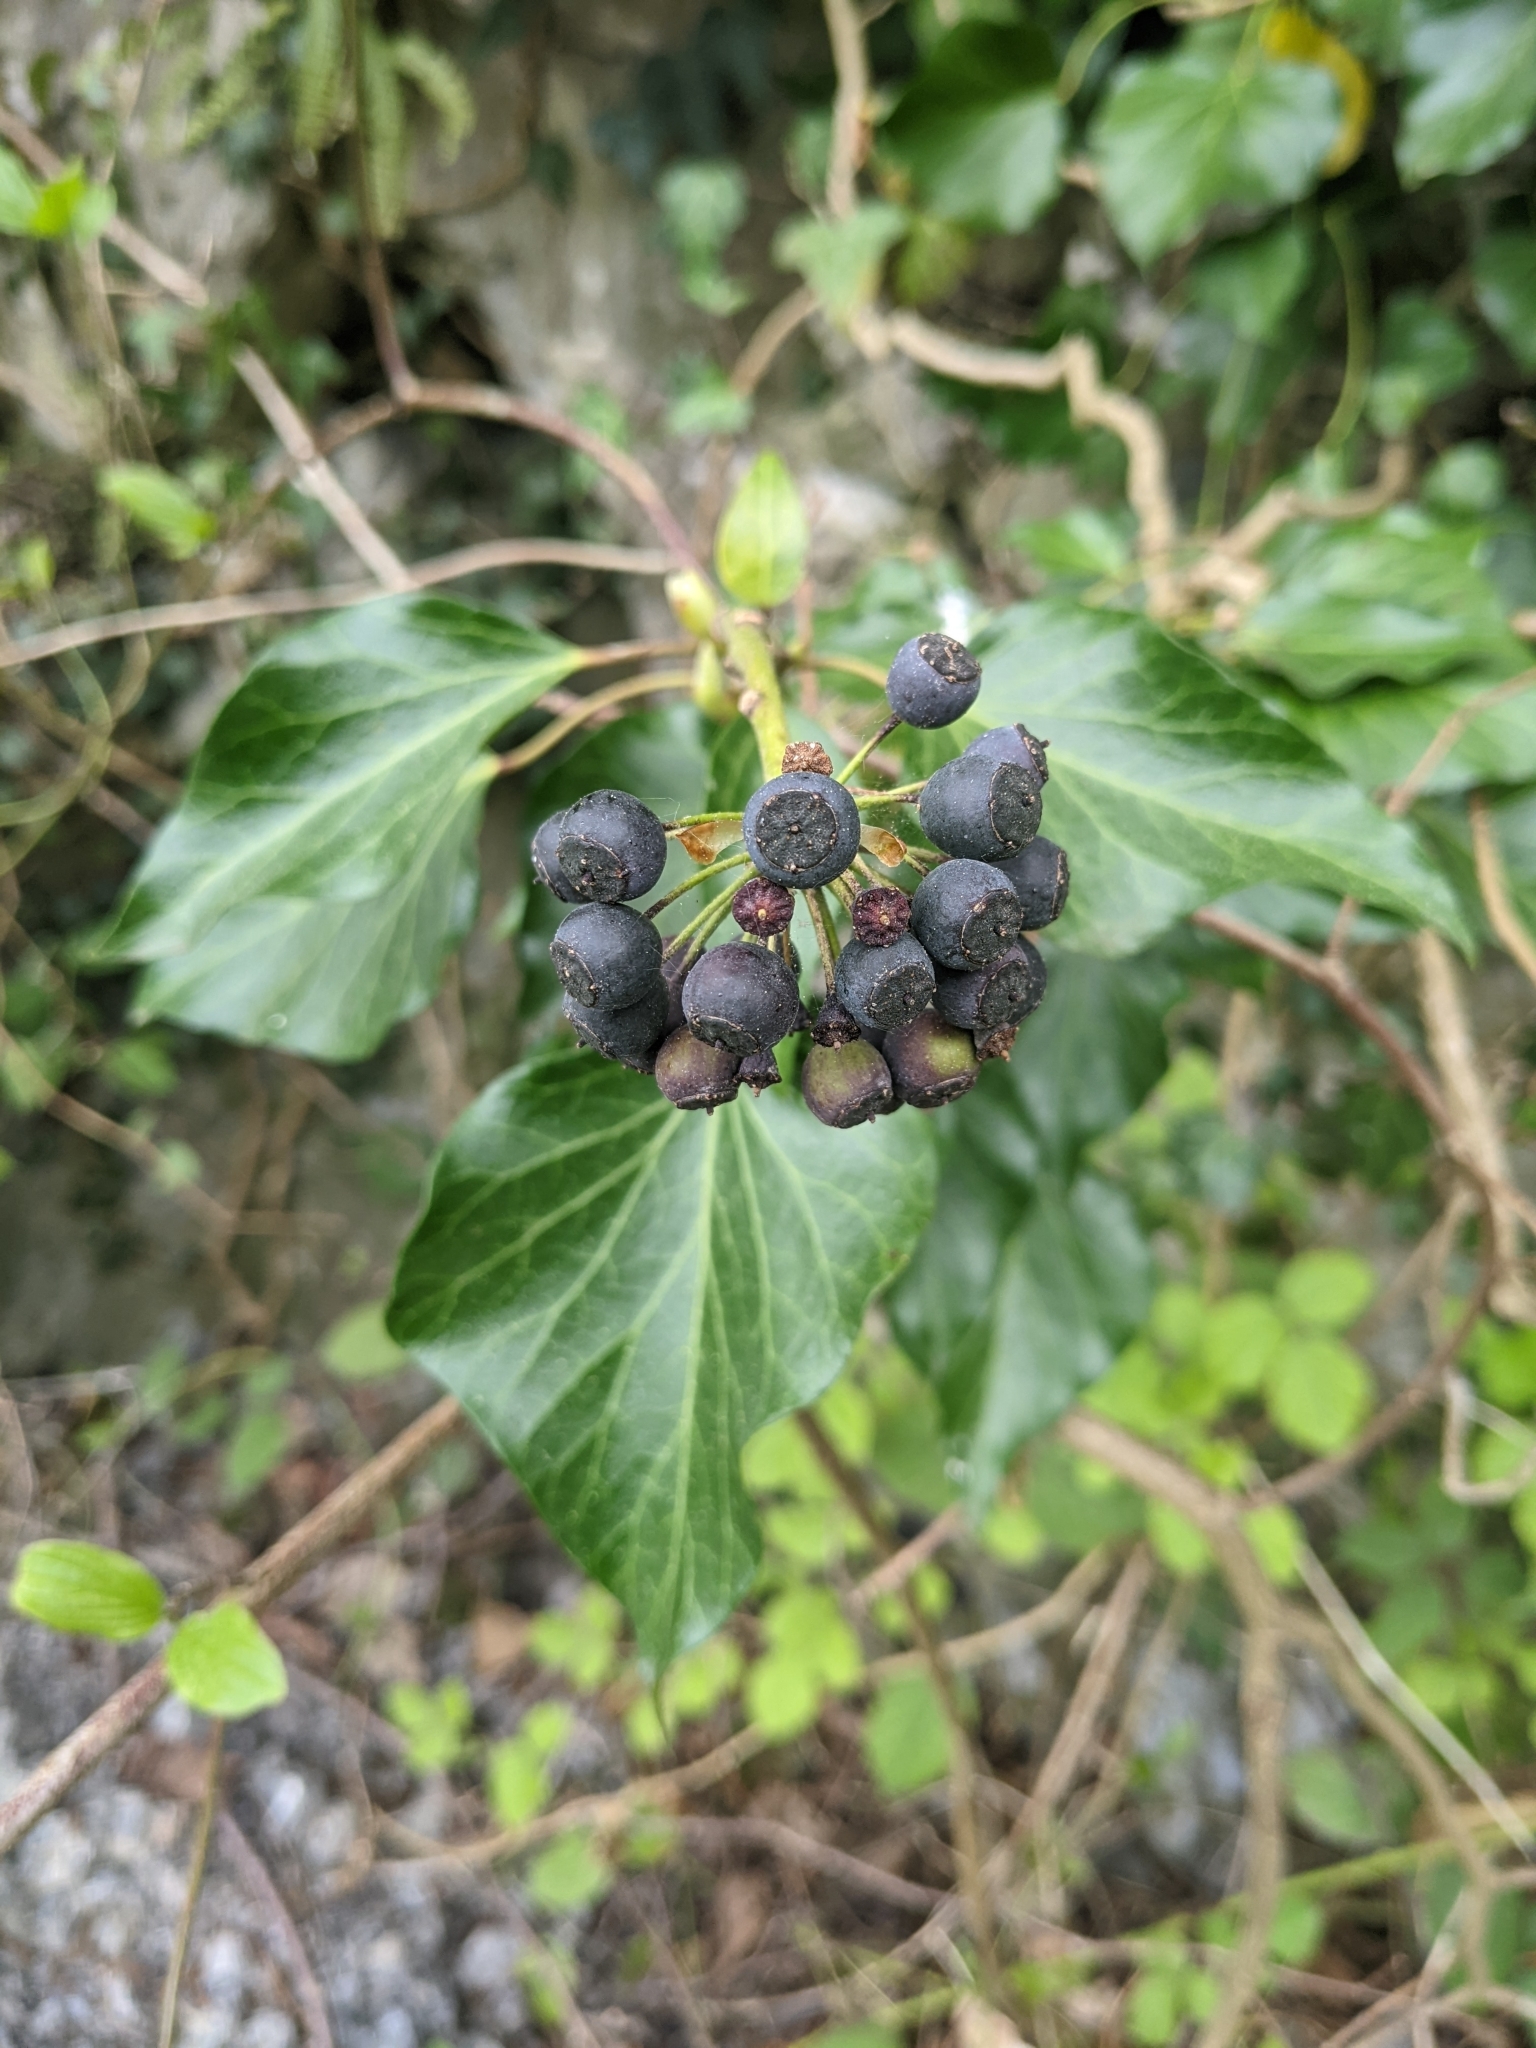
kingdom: Plantae
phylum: Tracheophyta
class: Magnoliopsida
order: Apiales
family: Araliaceae
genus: Hedera
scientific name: Hedera helix
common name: Ivy
